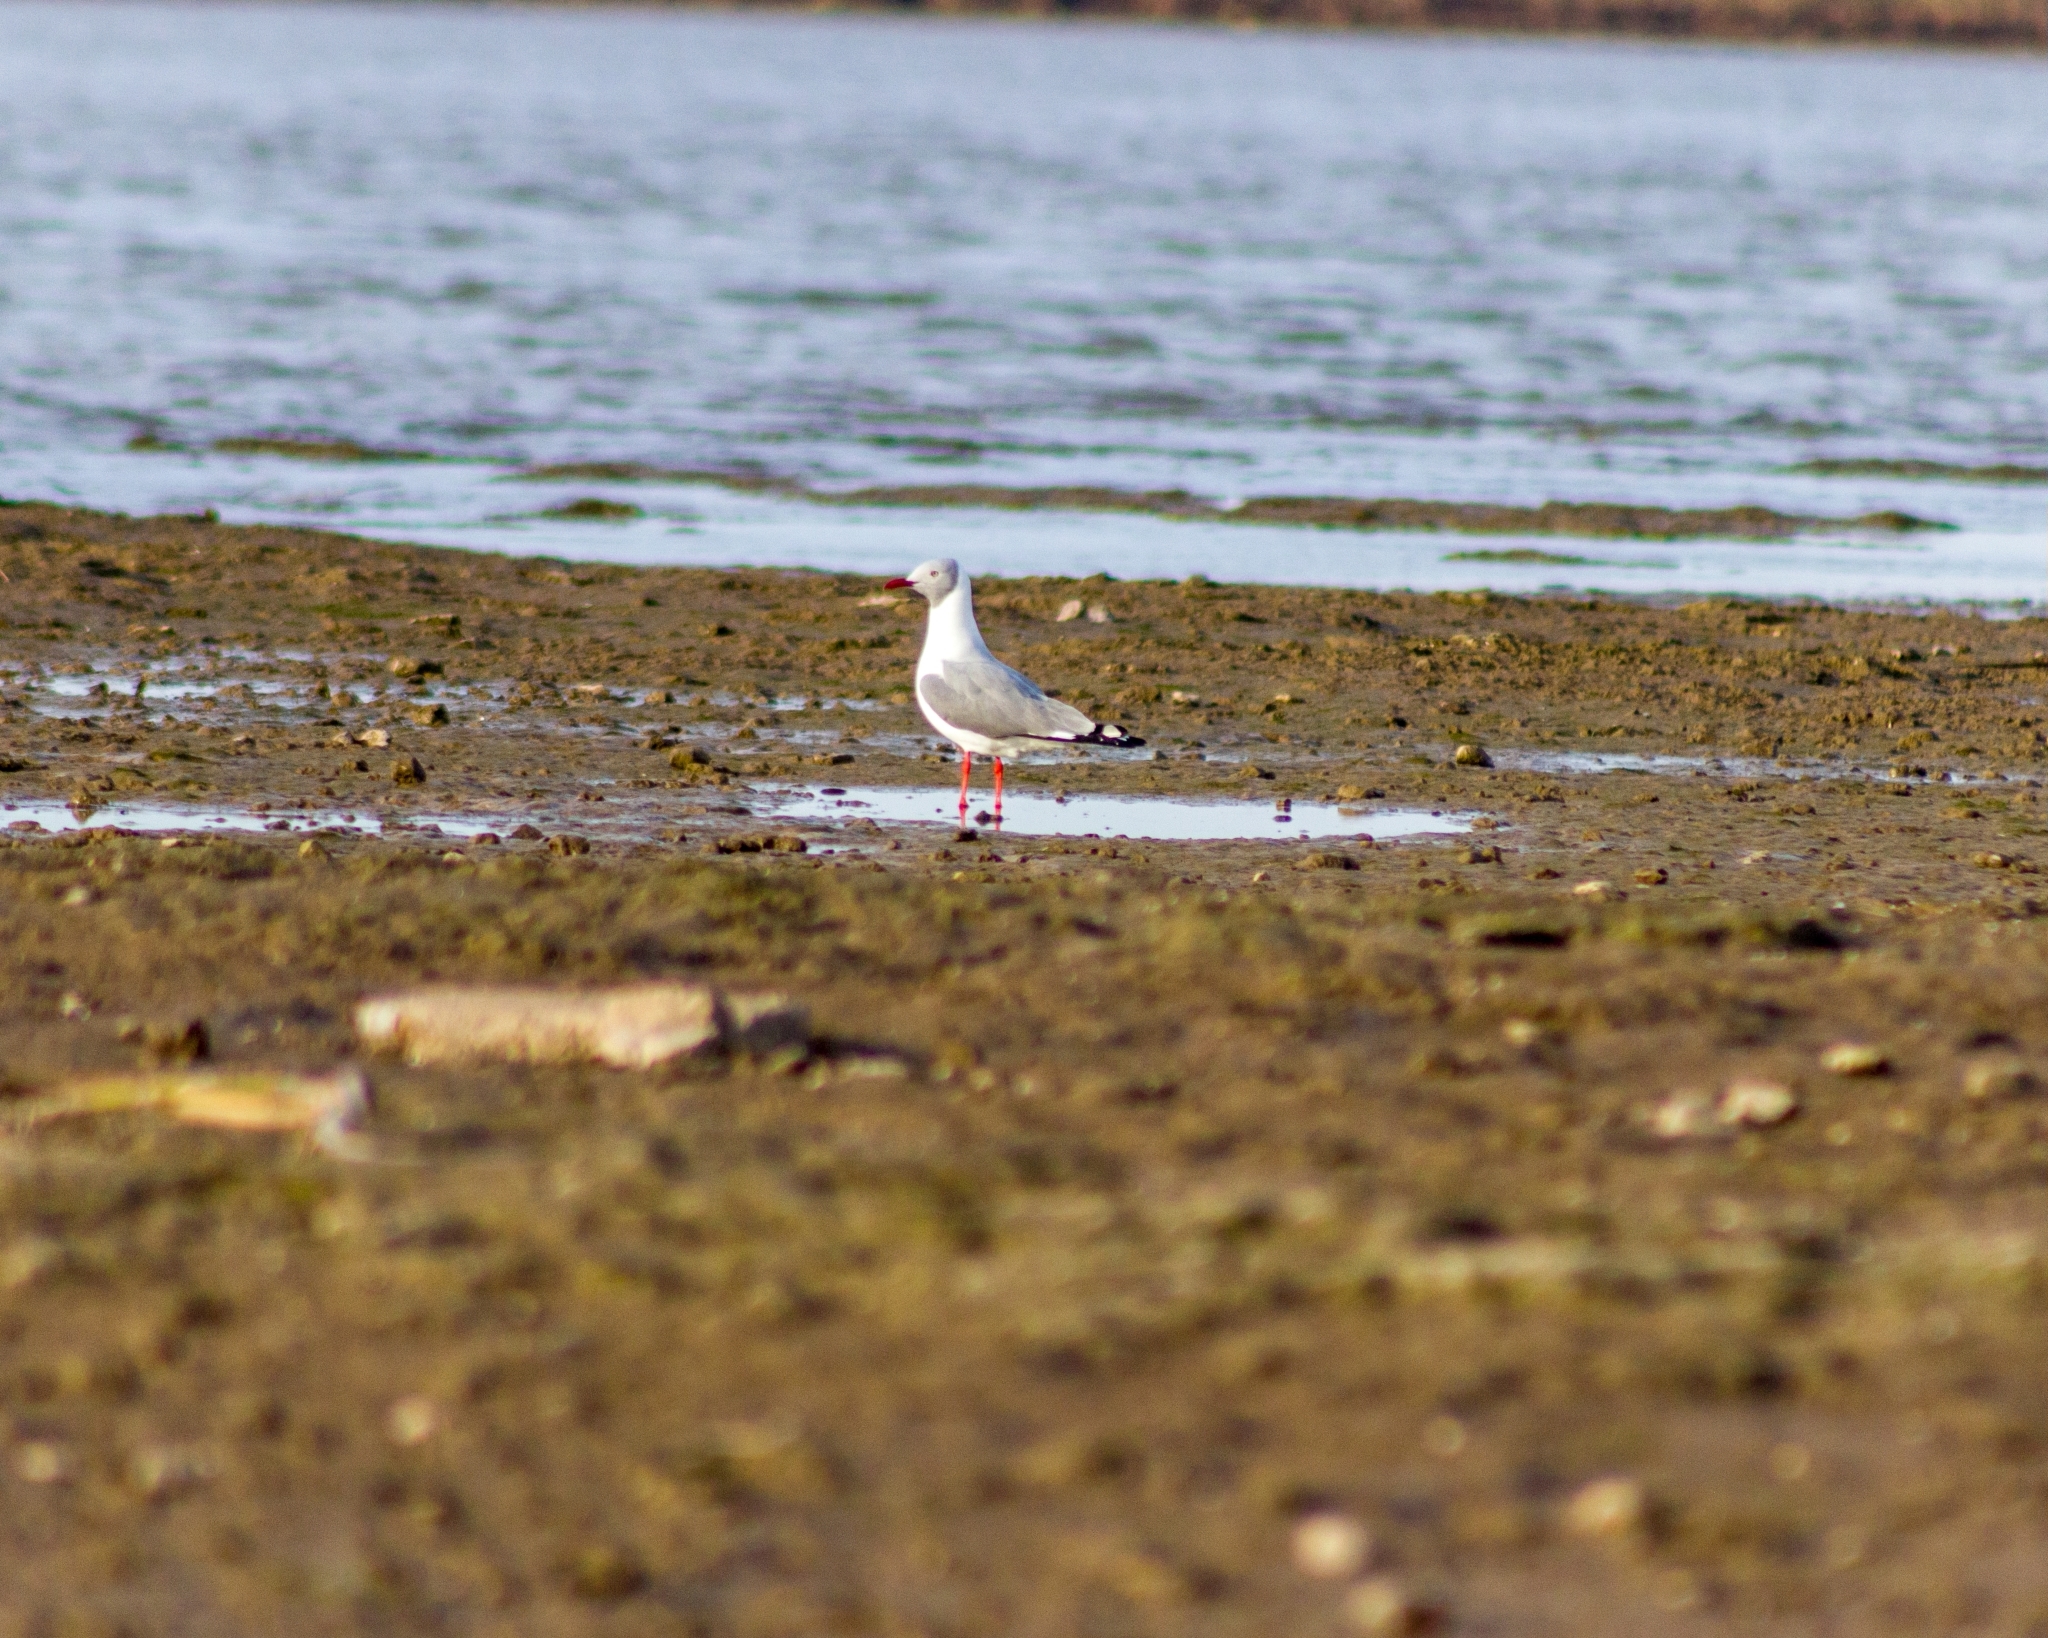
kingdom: Animalia
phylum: Chordata
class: Aves
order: Charadriiformes
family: Laridae
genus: Chroicocephalus
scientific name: Chroicocephalus cirrocephalus
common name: Grey-headed gull
